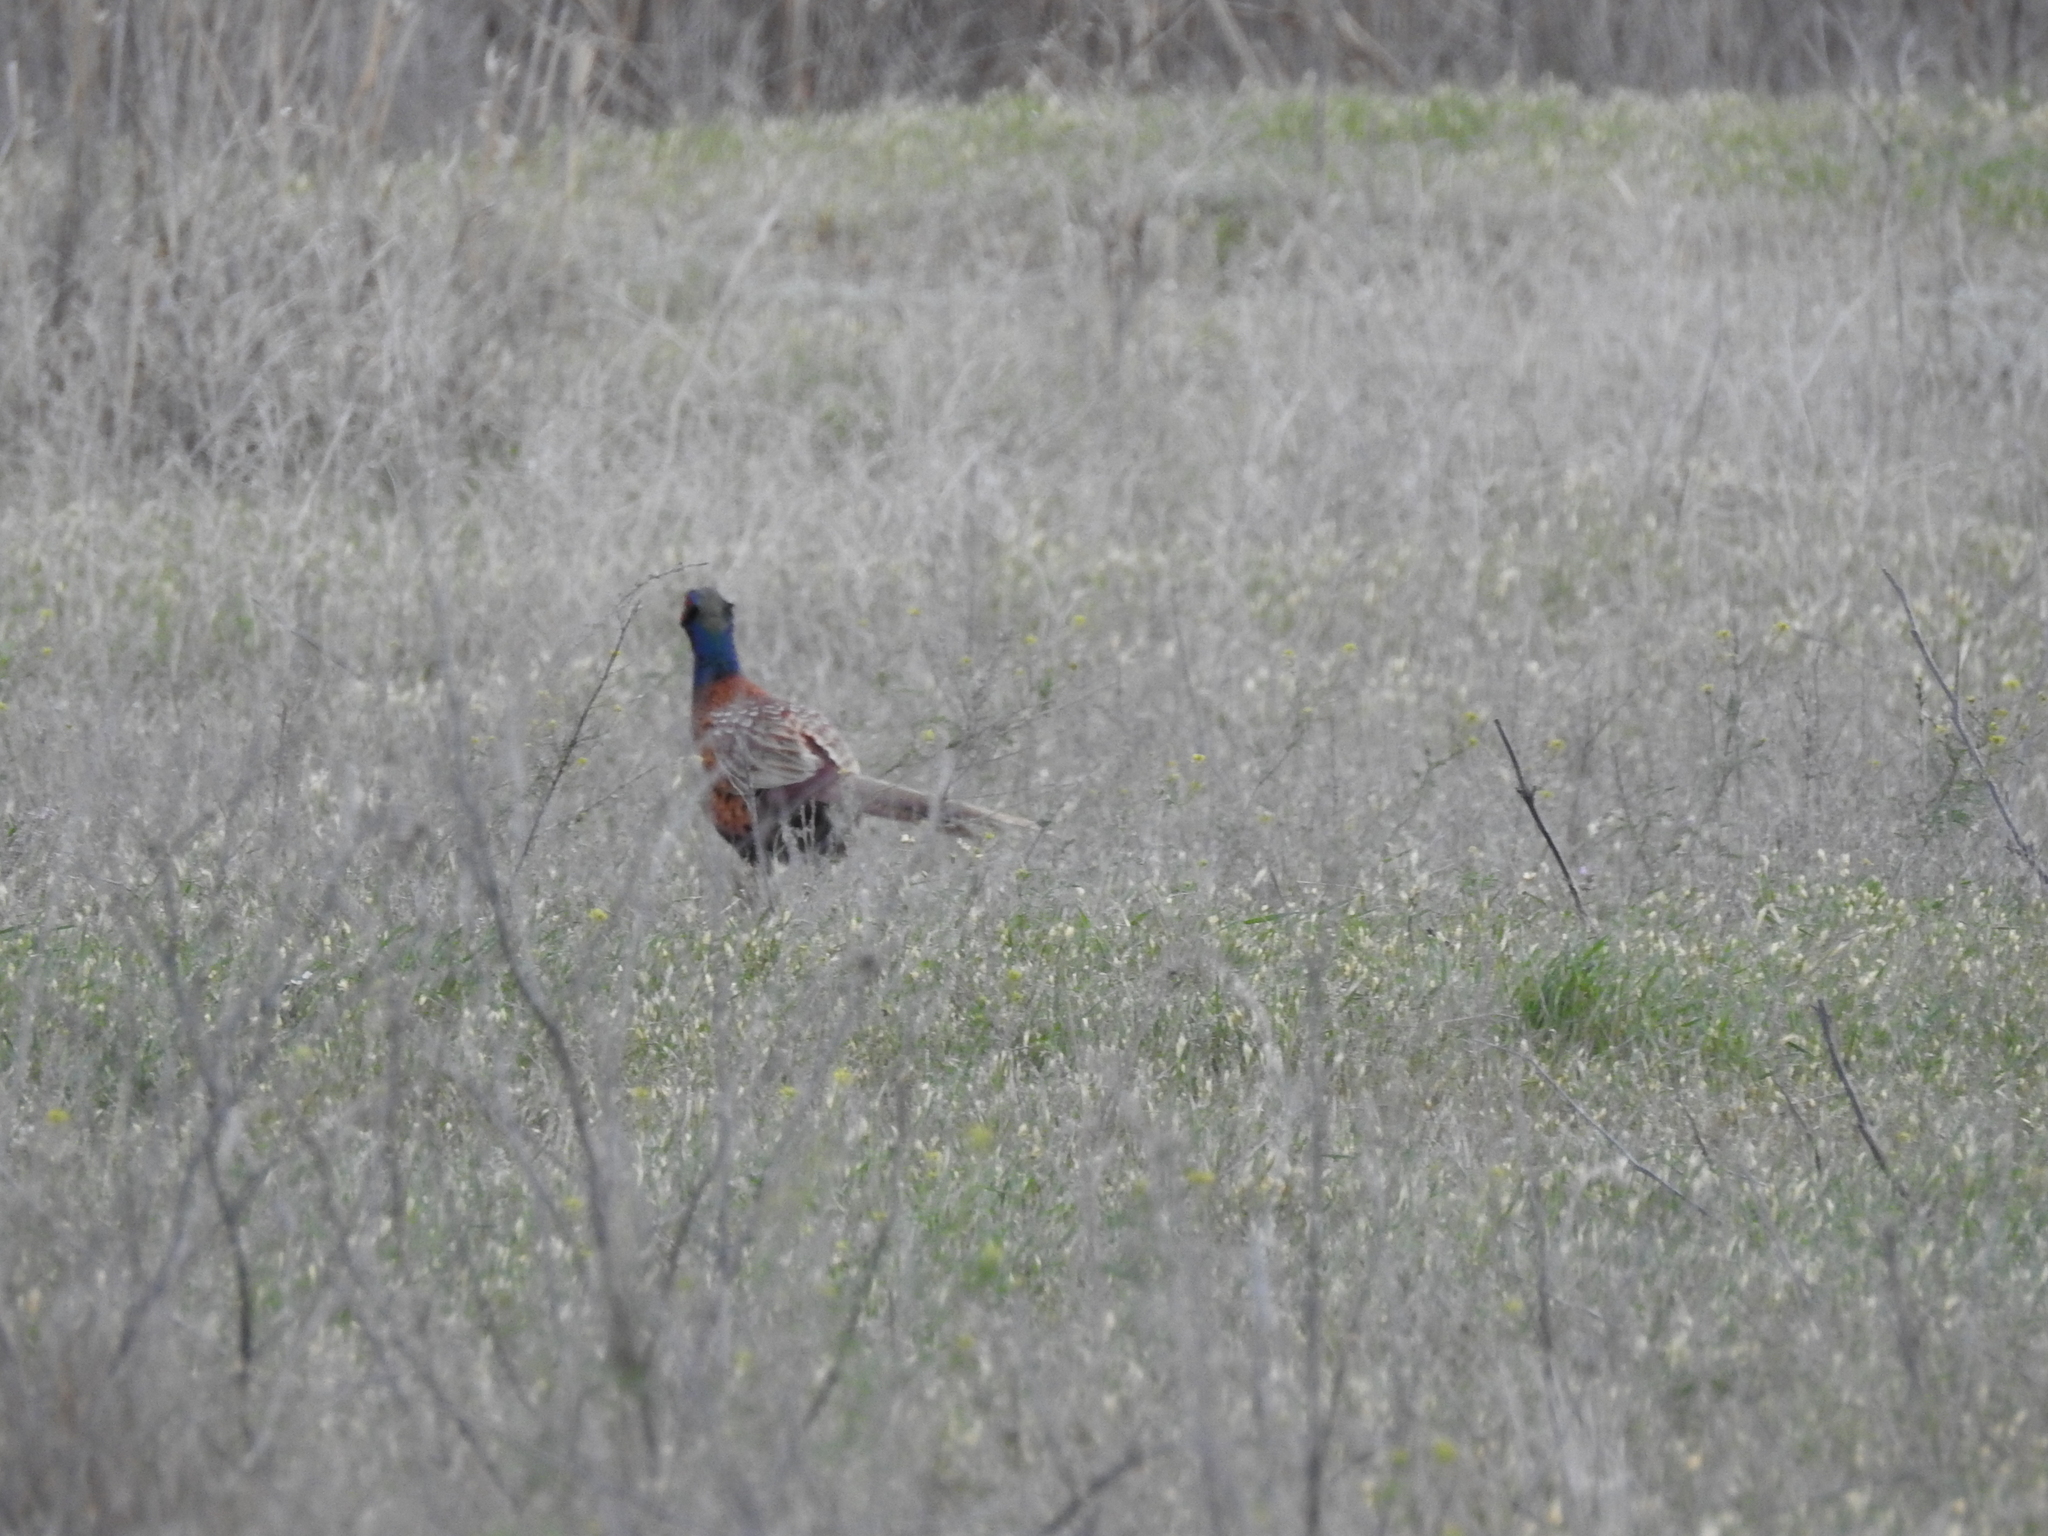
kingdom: Animalia
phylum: Chordata
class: Aves
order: Galliformes
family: Phasianidae
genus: Phasianus
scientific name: Phasianus colchicus
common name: Common pheasant
